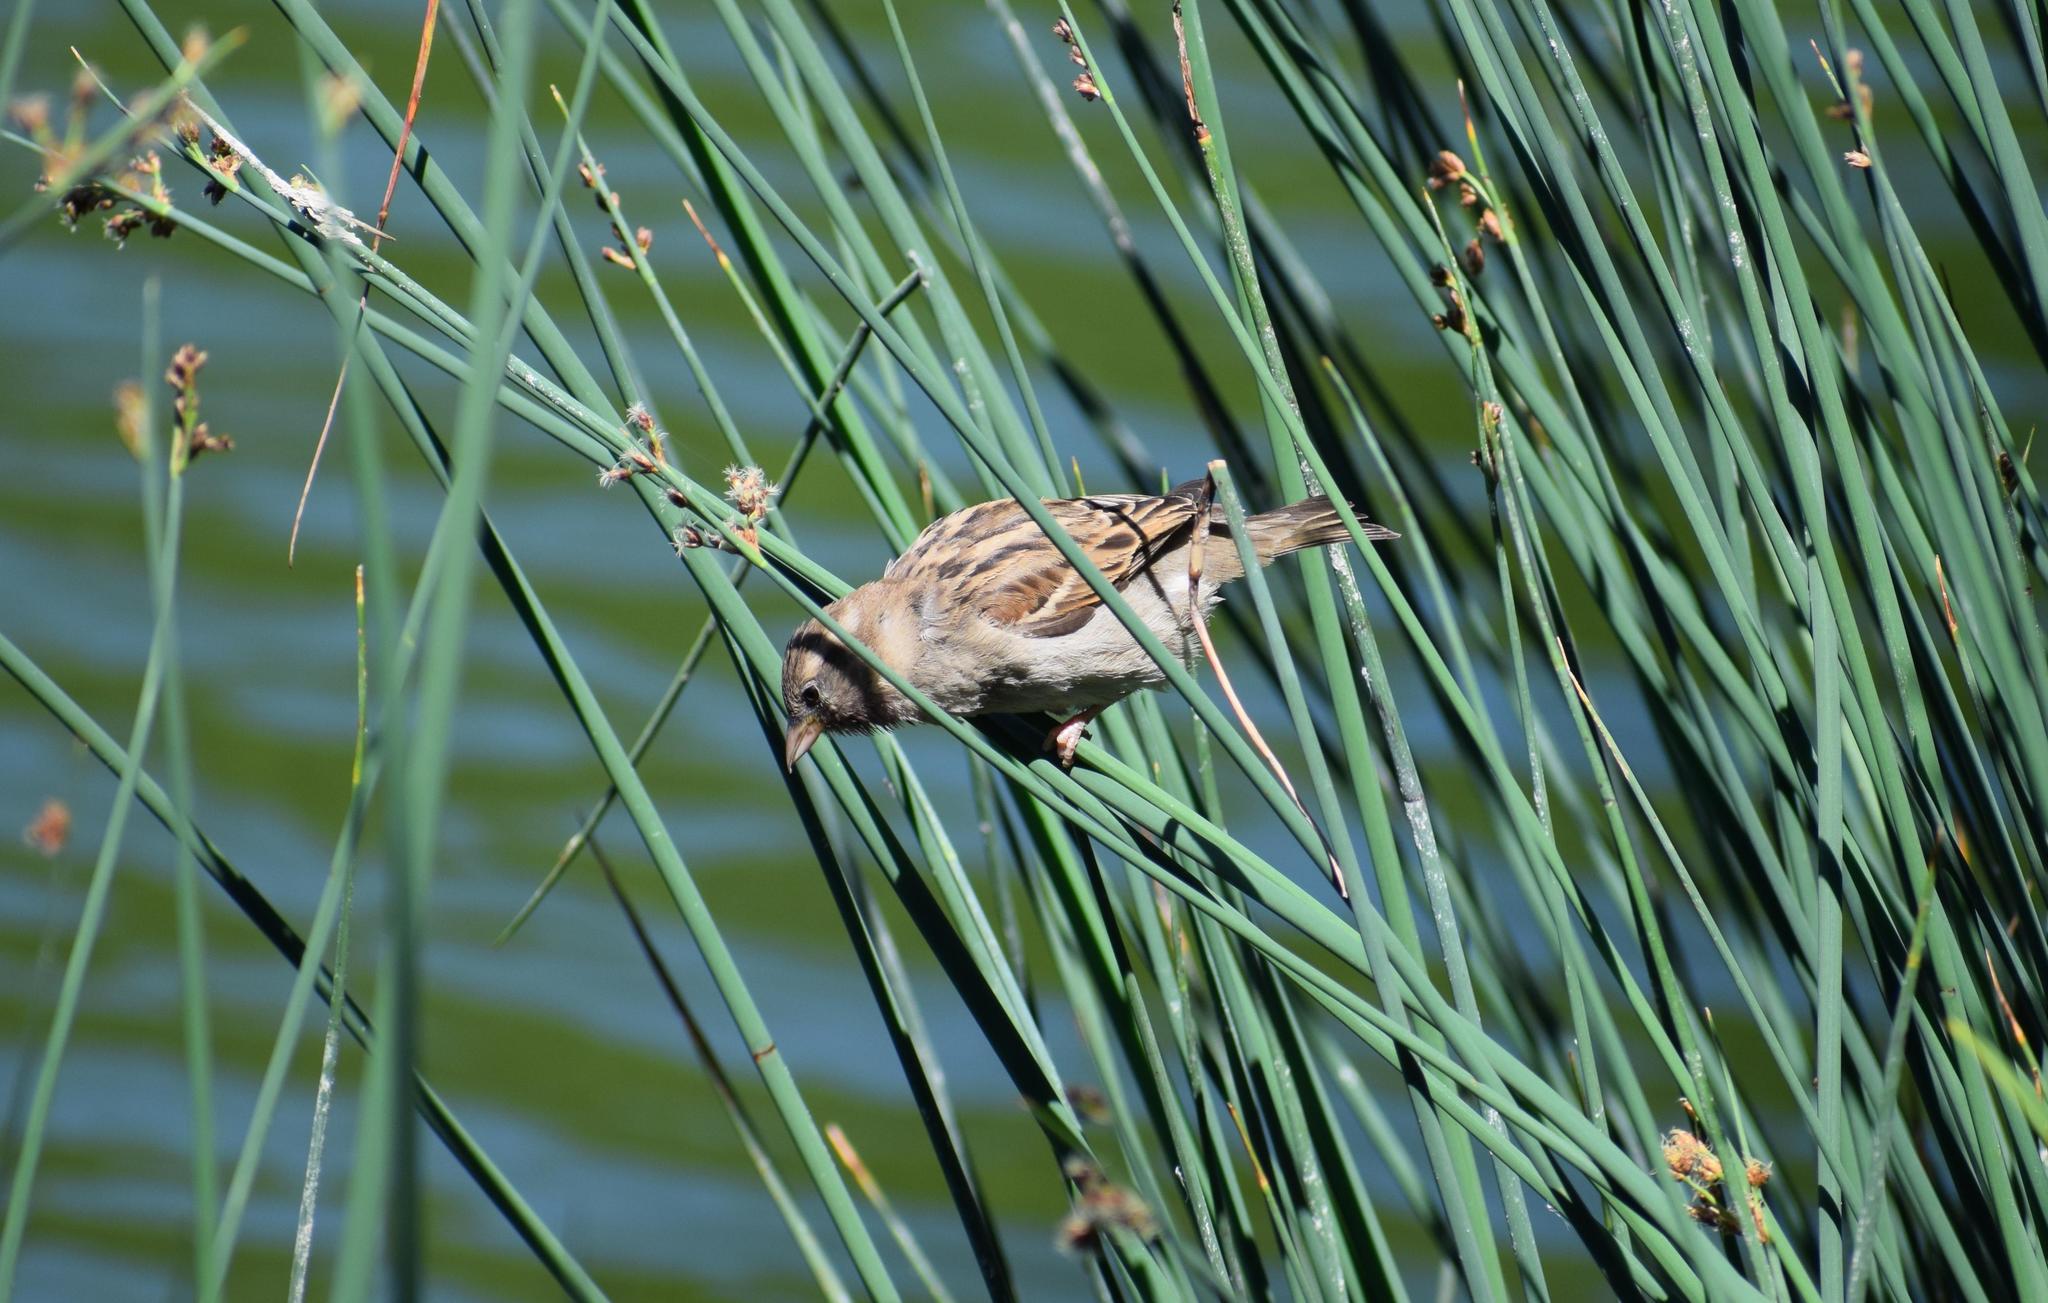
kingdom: Animalia
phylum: Chordata
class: Aves
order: Passeriformes
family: Passeridae
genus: Passer
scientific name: Passer domesticus
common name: House sparrow
